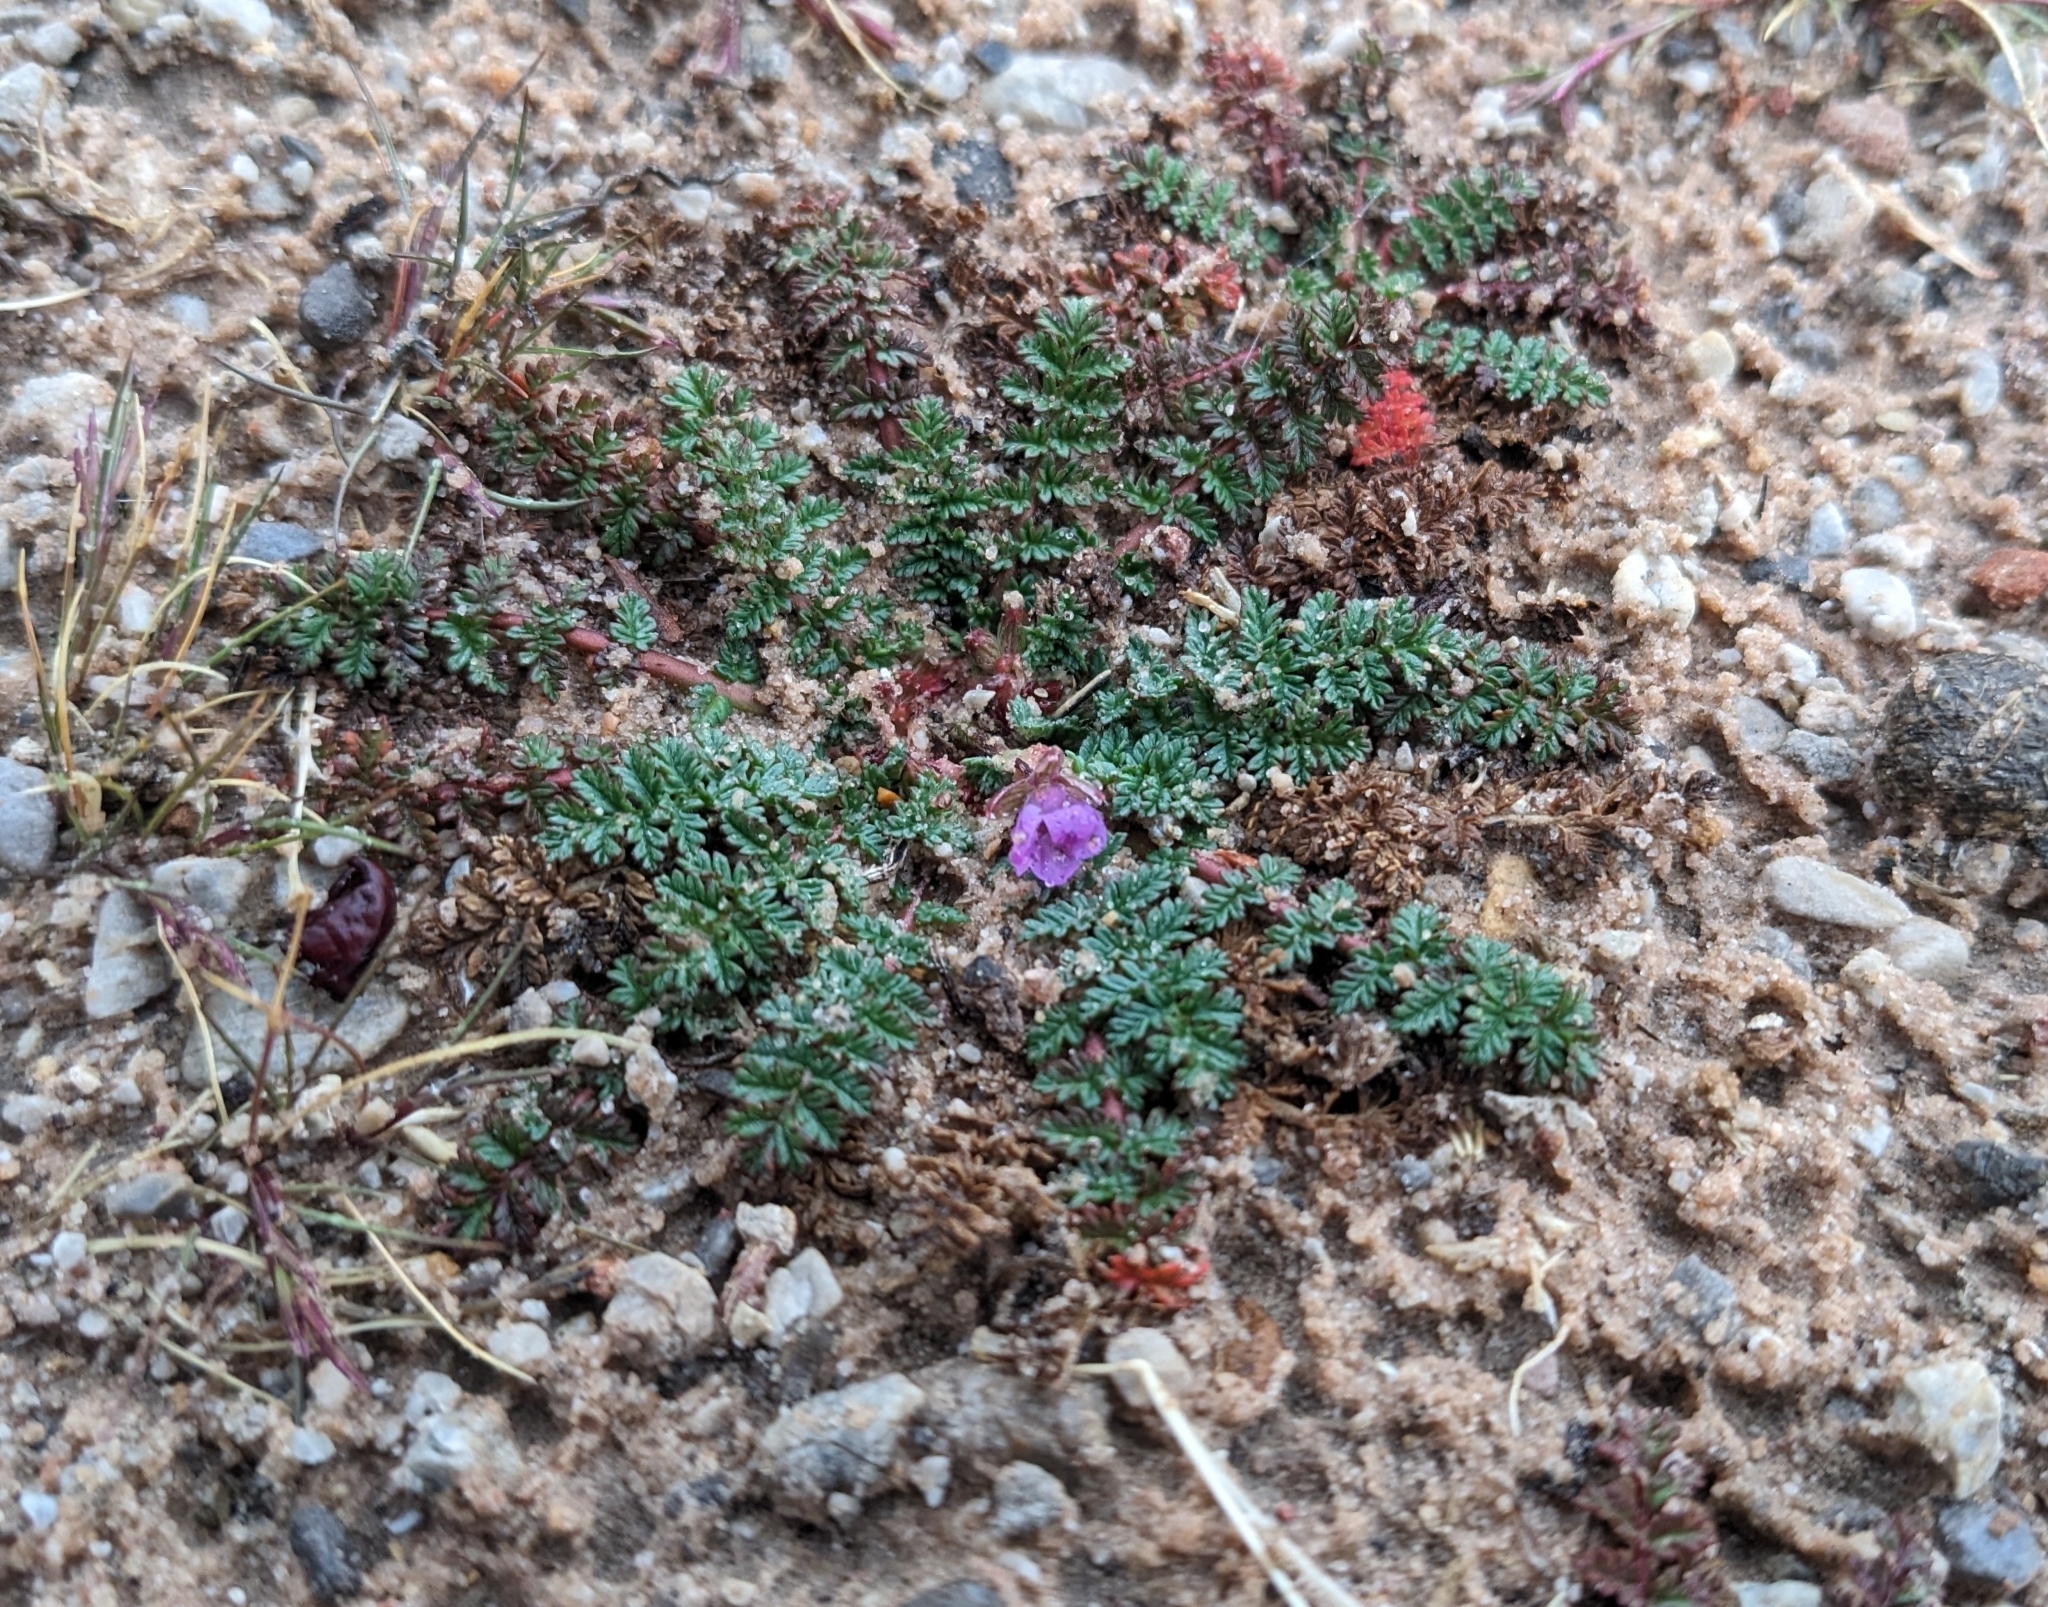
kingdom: Plantae
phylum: Tracheophyta
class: Magnoliopsida
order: Geraniales
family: Geraniaceae
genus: Erodium
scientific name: Erodium cicutarium
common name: Common stork's-bill
